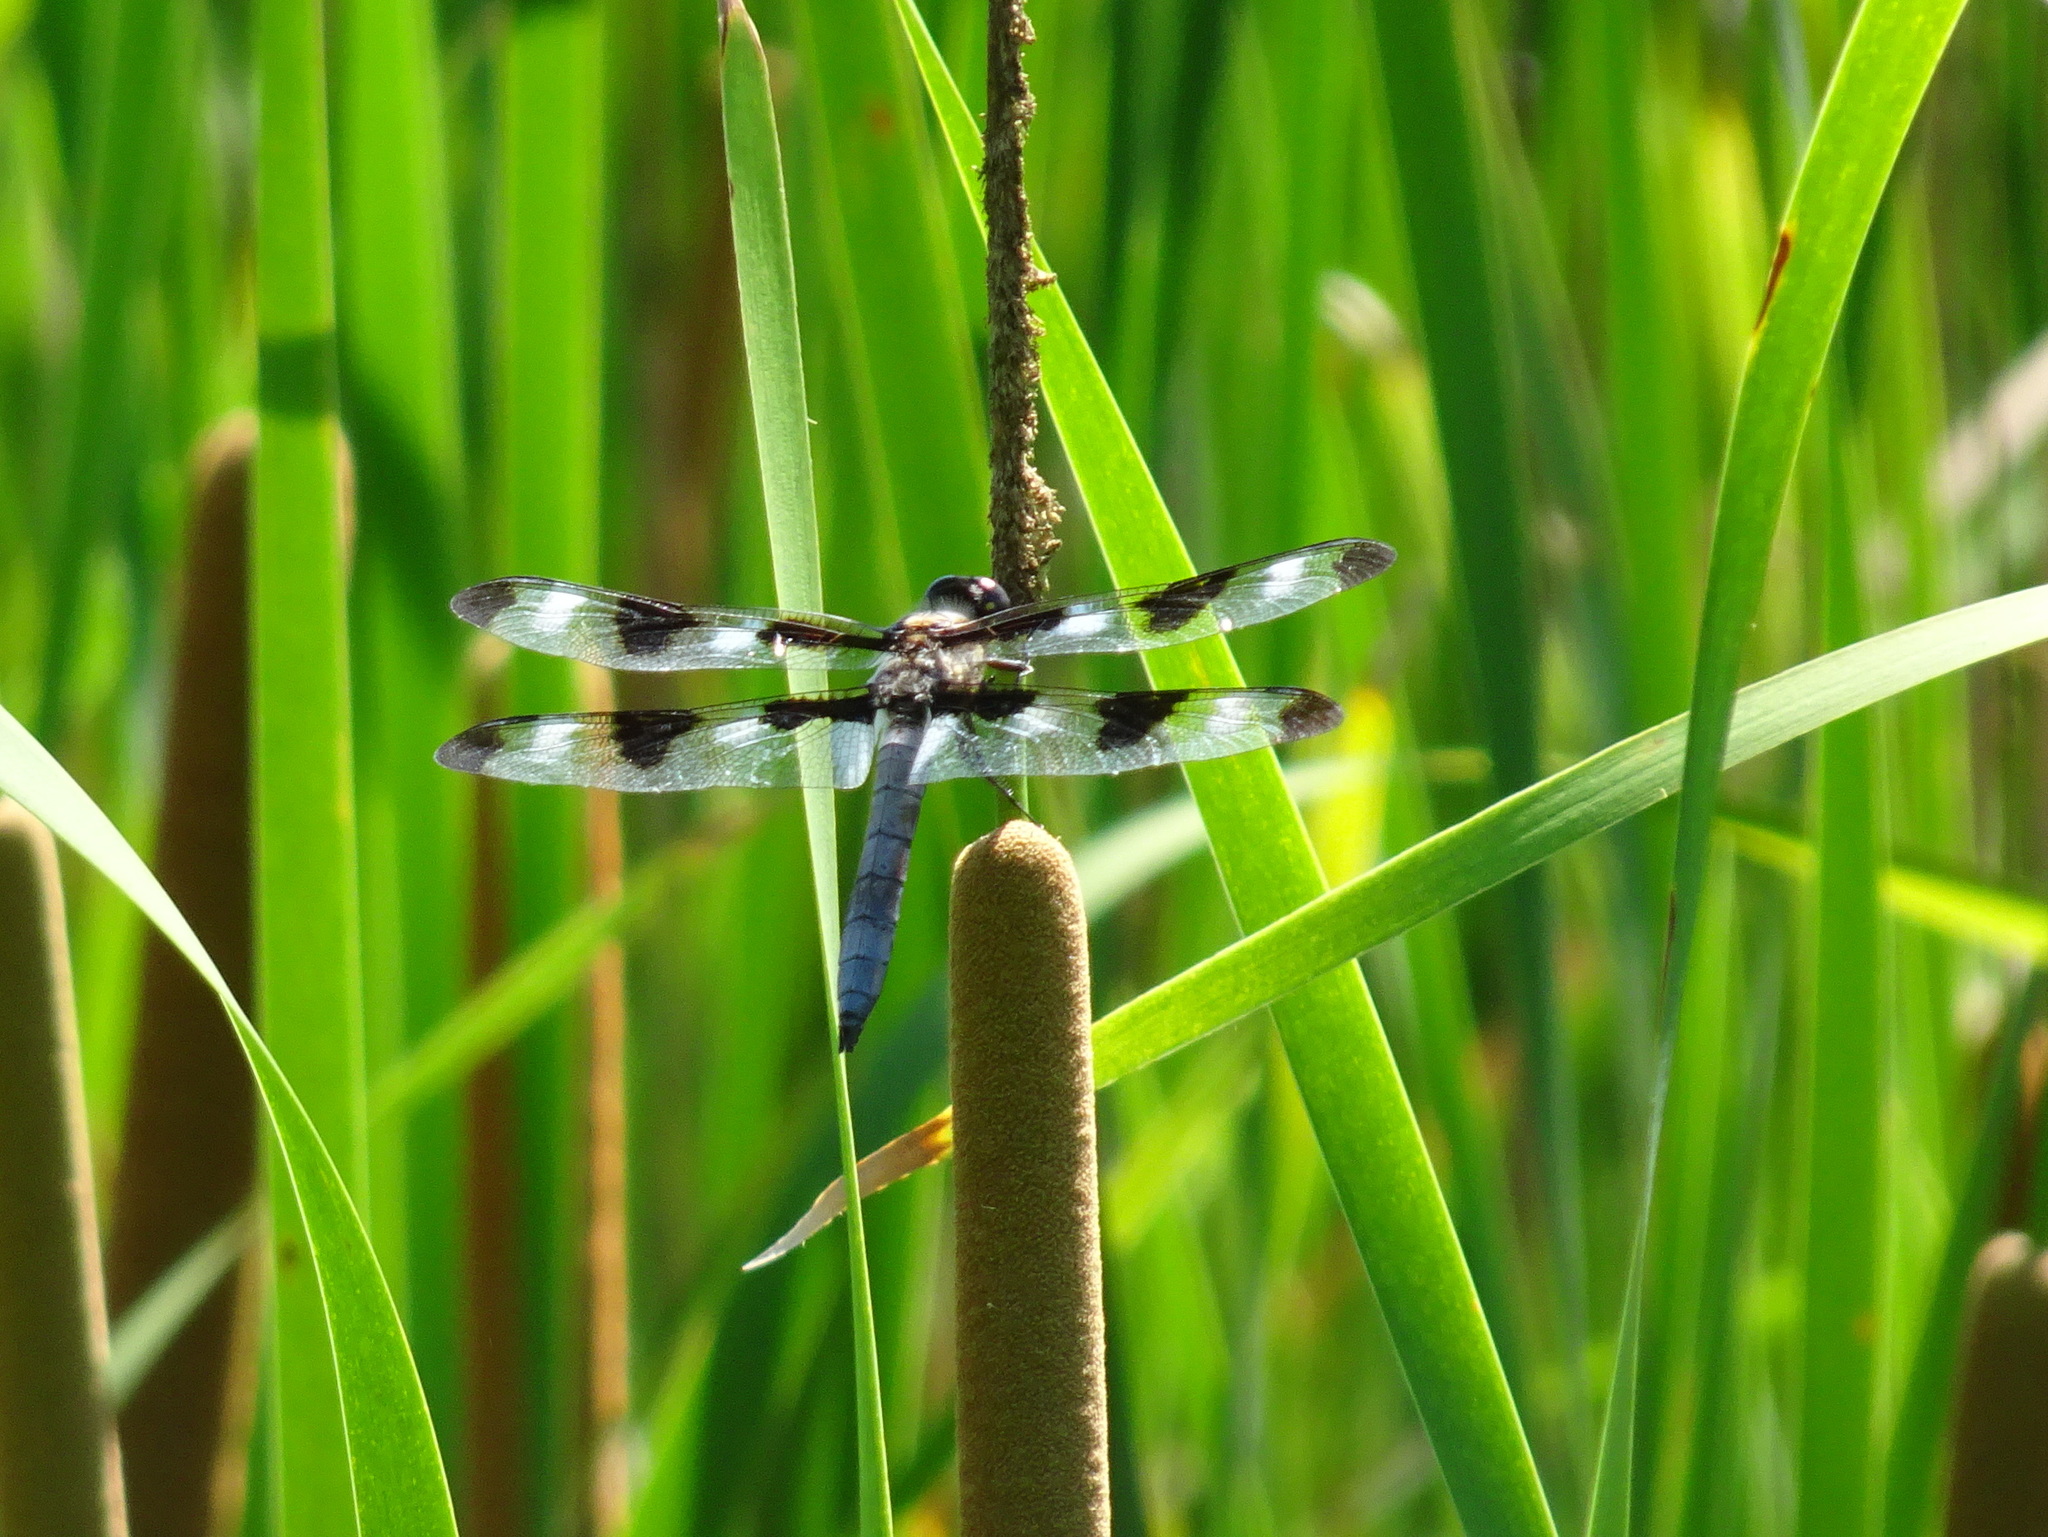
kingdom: Animalia
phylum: Arthropoda
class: Insecta
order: Odonata
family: Libellulidae
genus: Libellula
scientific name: Libellula pulchella
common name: Twelve-spotted skimmer
